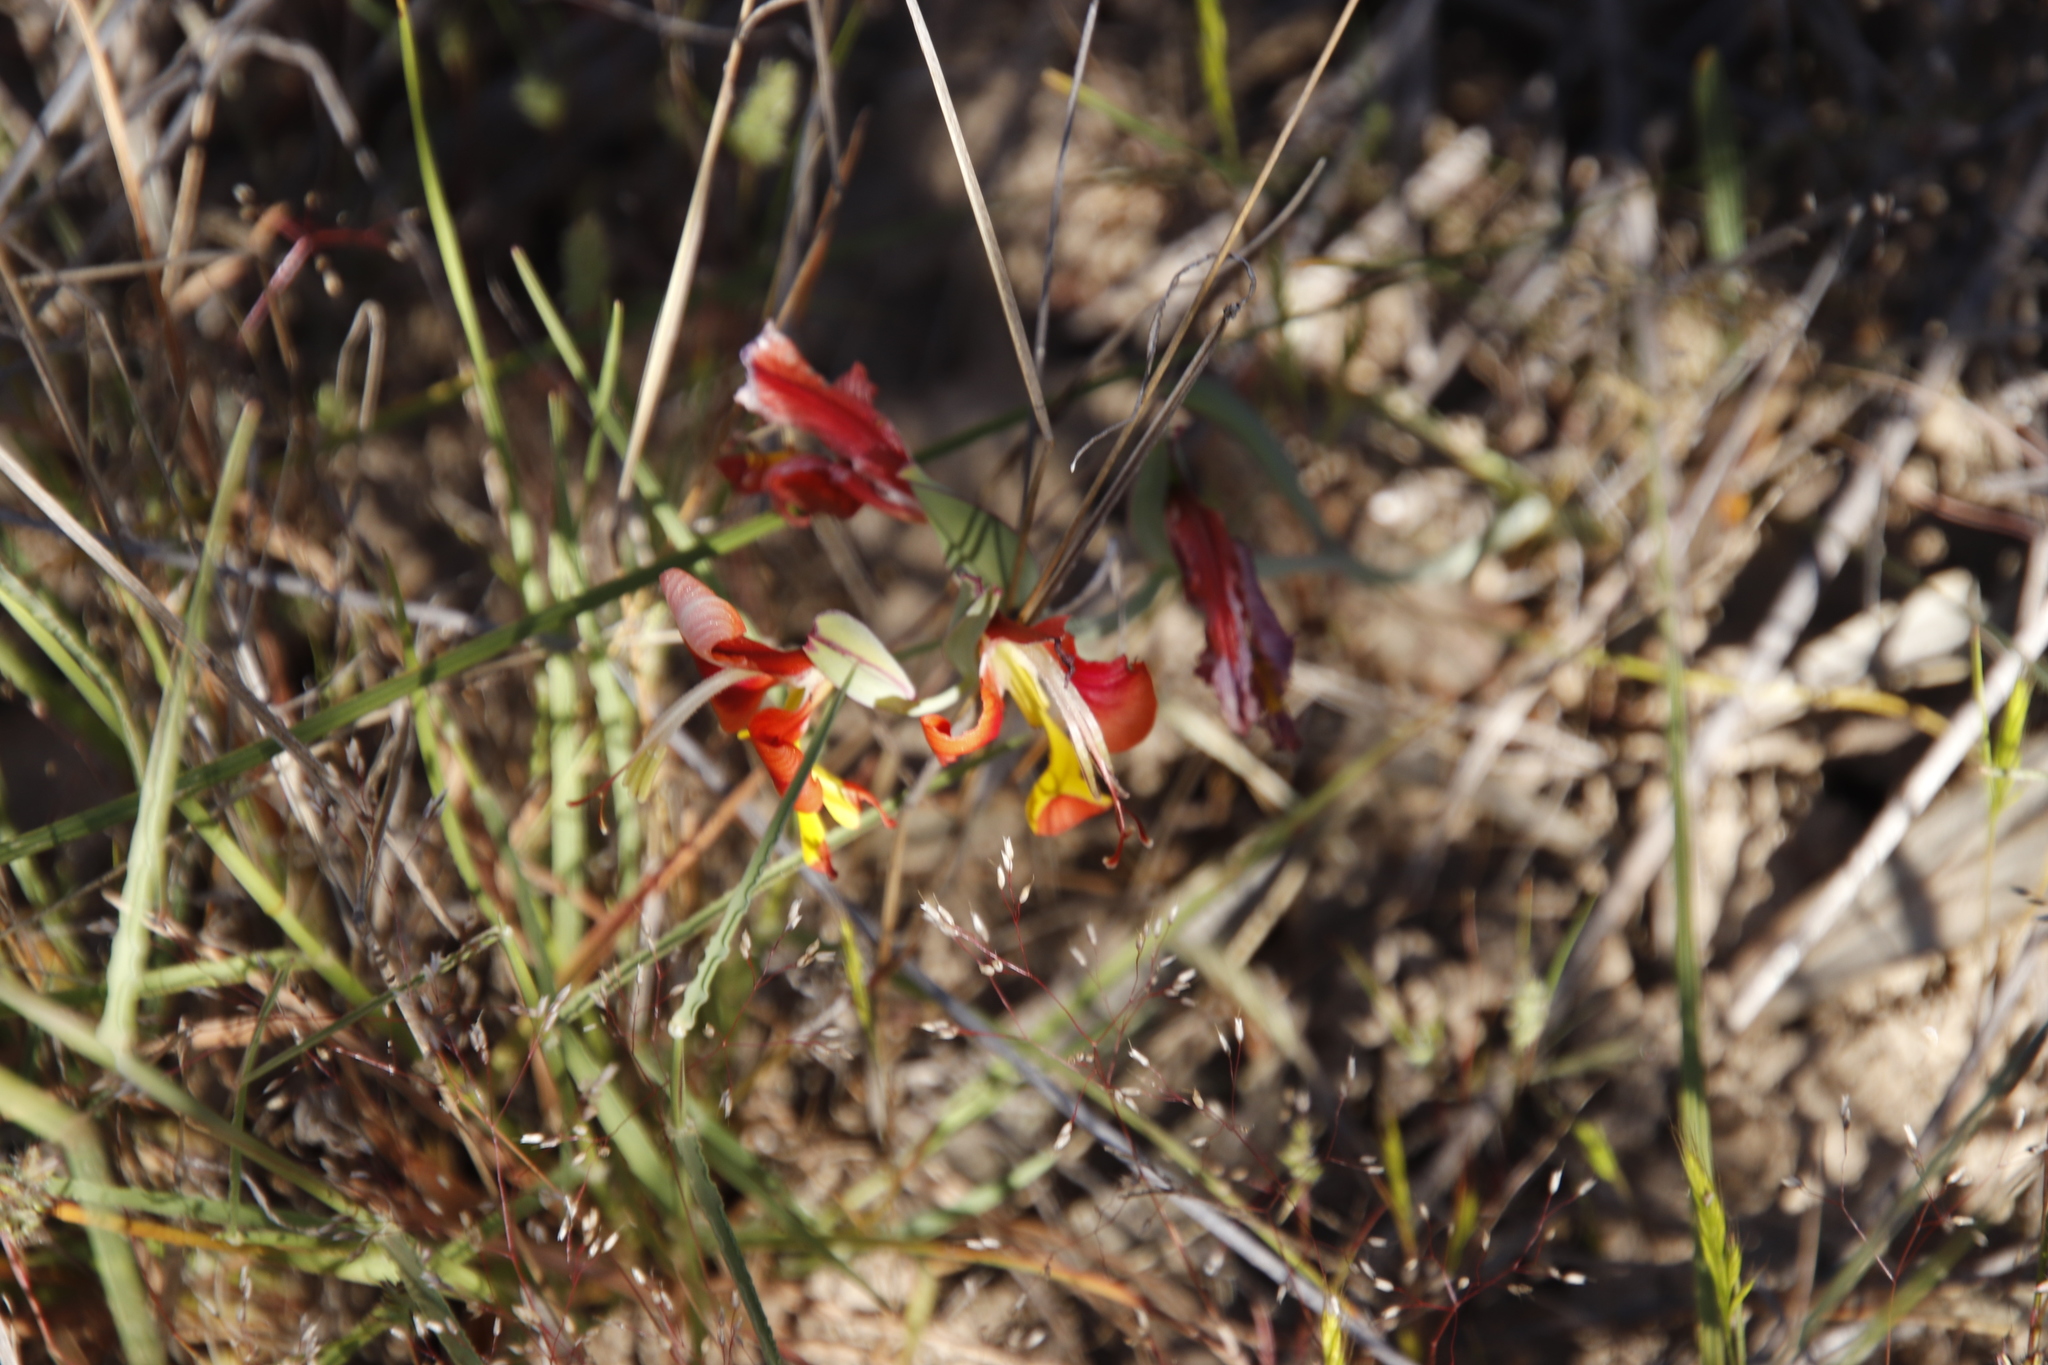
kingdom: Plantae
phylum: Tracheophyta
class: Liliopsida
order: Asparagales
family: Iridaceae
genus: Gladiolus
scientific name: Gladiolus alatus
